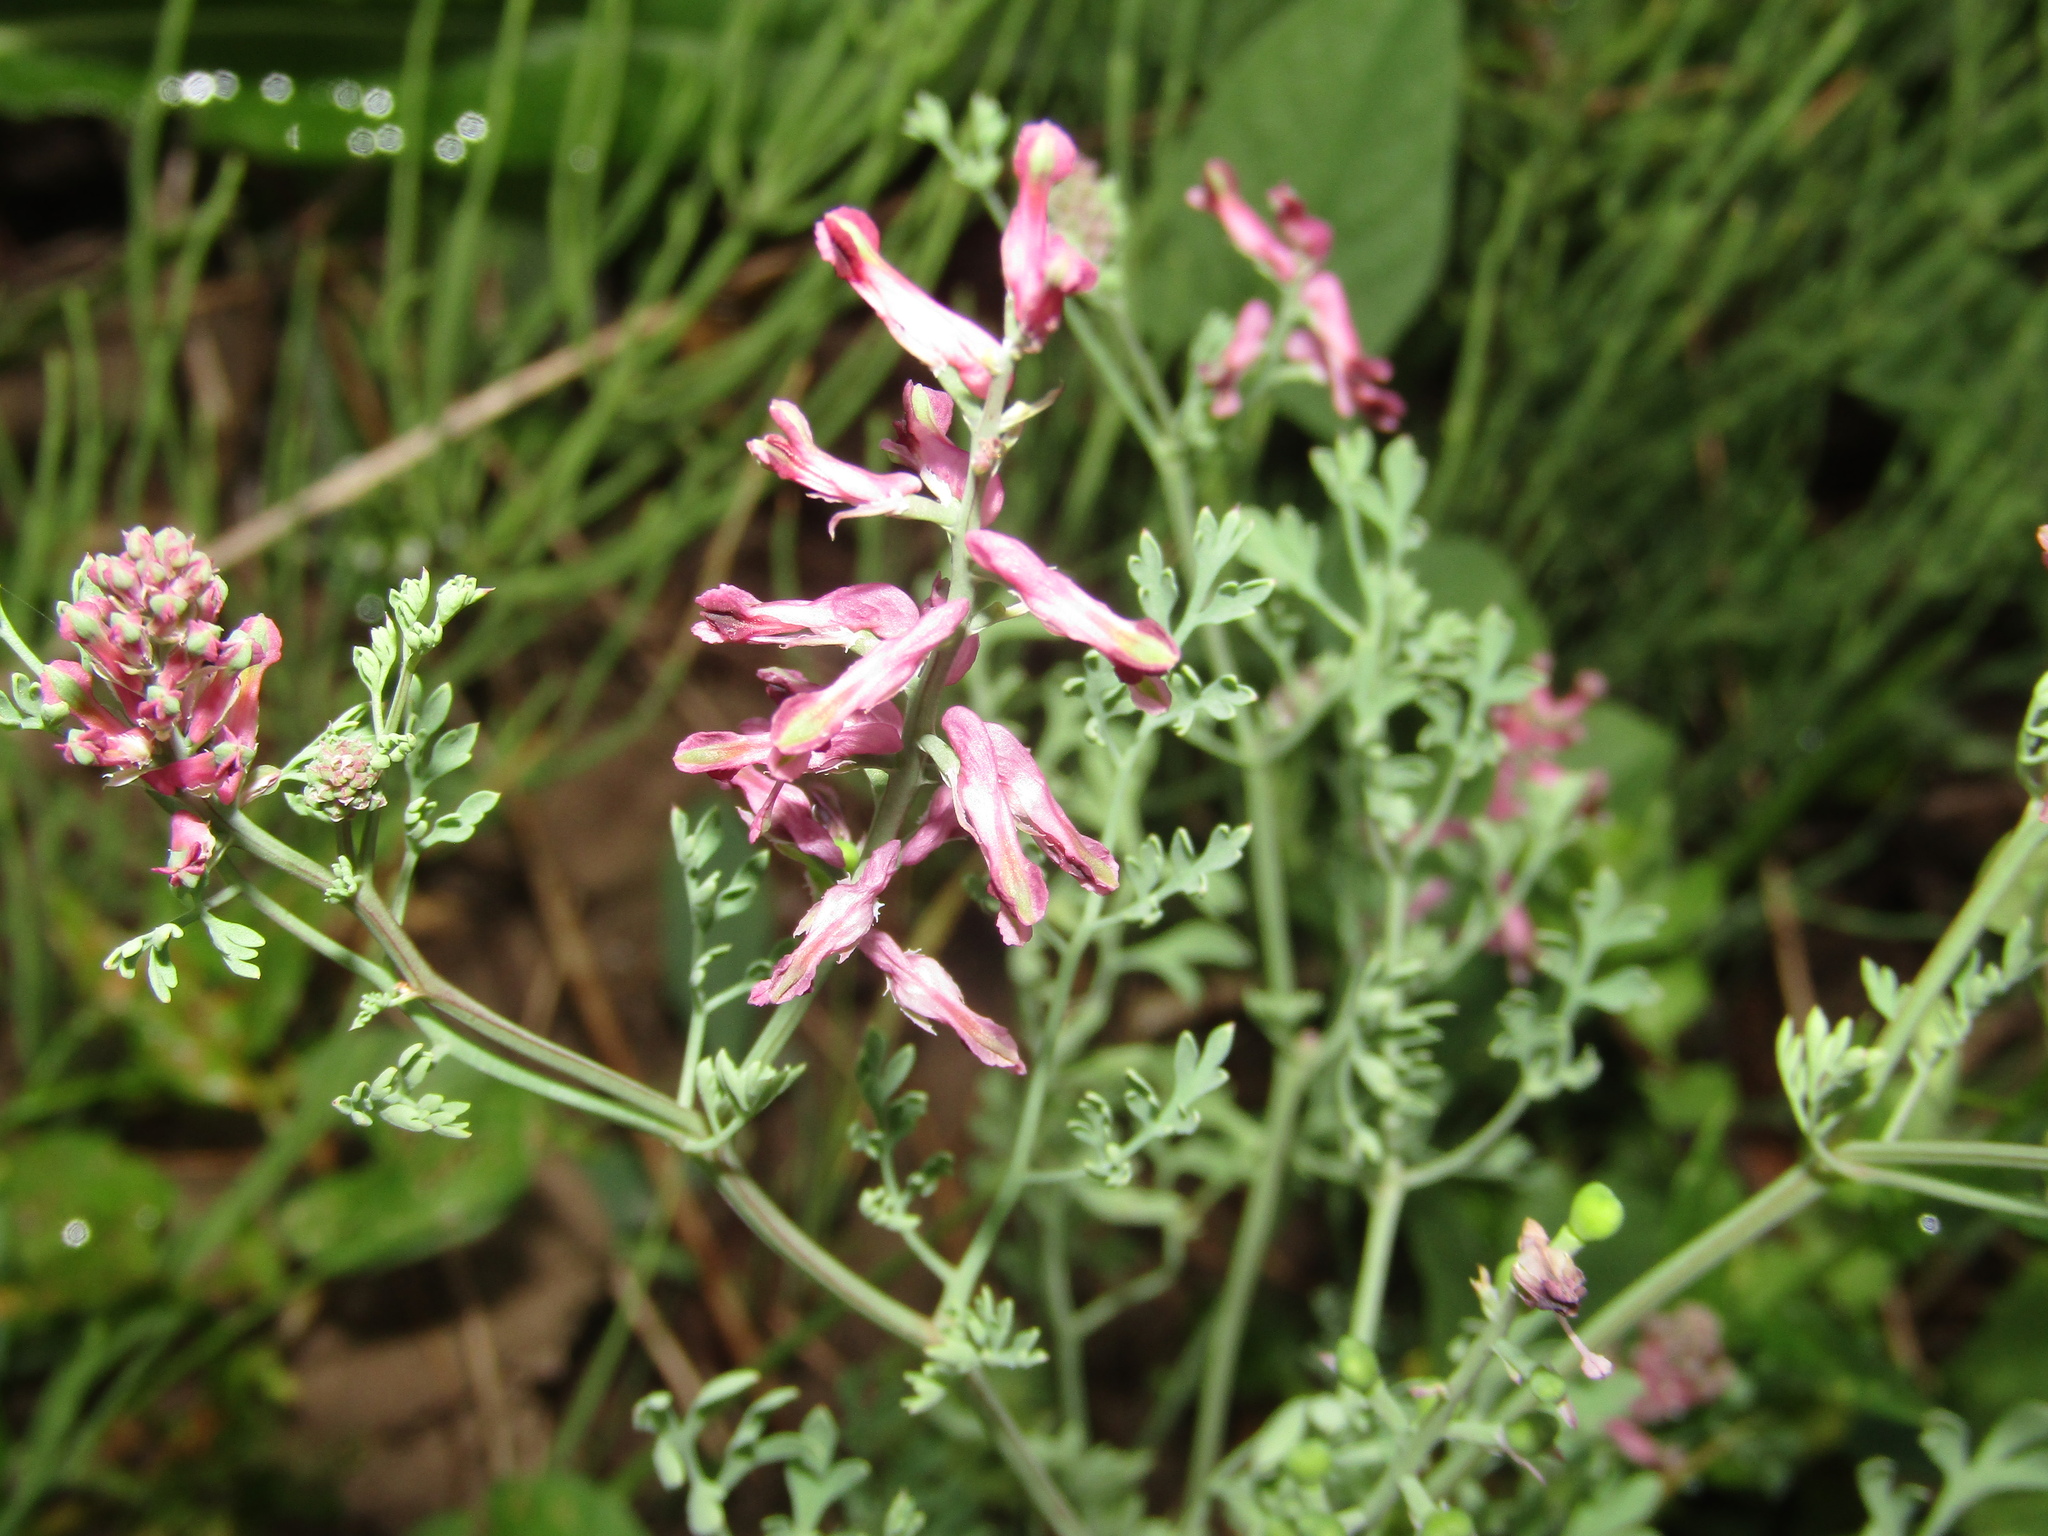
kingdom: Plantae
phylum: Tracheophyta
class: Magnoliopsida
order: Ranunculales
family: Papaveraceae
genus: Fumaria
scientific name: Fumaria officinalis
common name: Common fumitory
